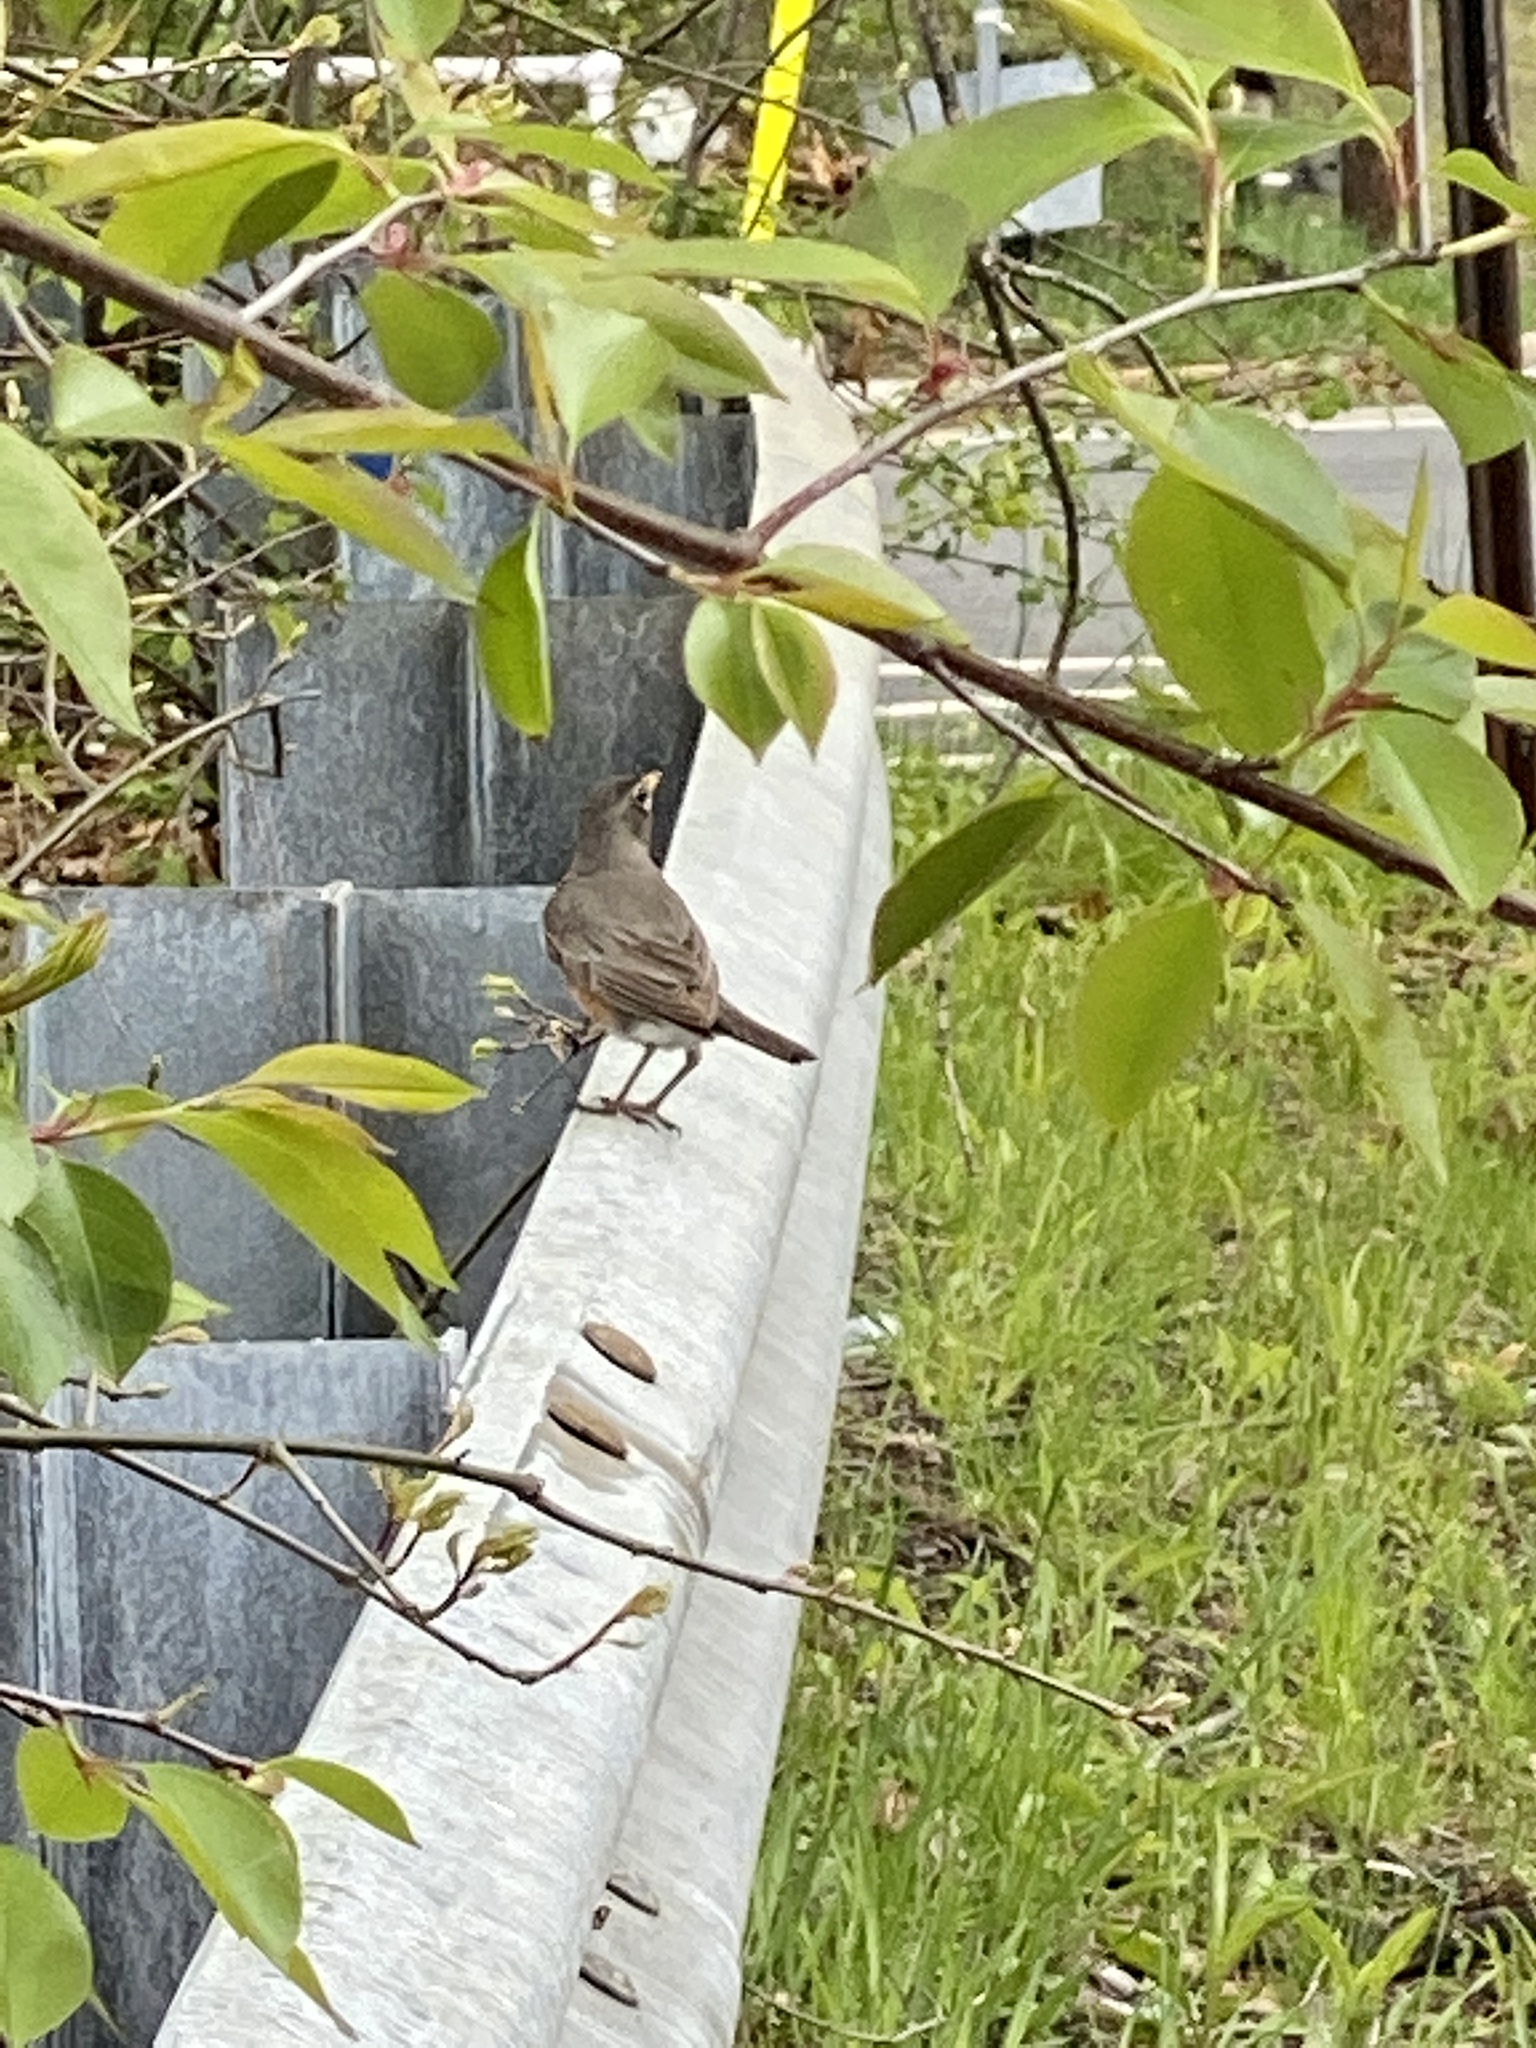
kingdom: Animalia
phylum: Chordata
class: Aves
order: Passeriformes
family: Turdidae
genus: Turdus
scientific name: Turdus migratorius
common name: American robin
